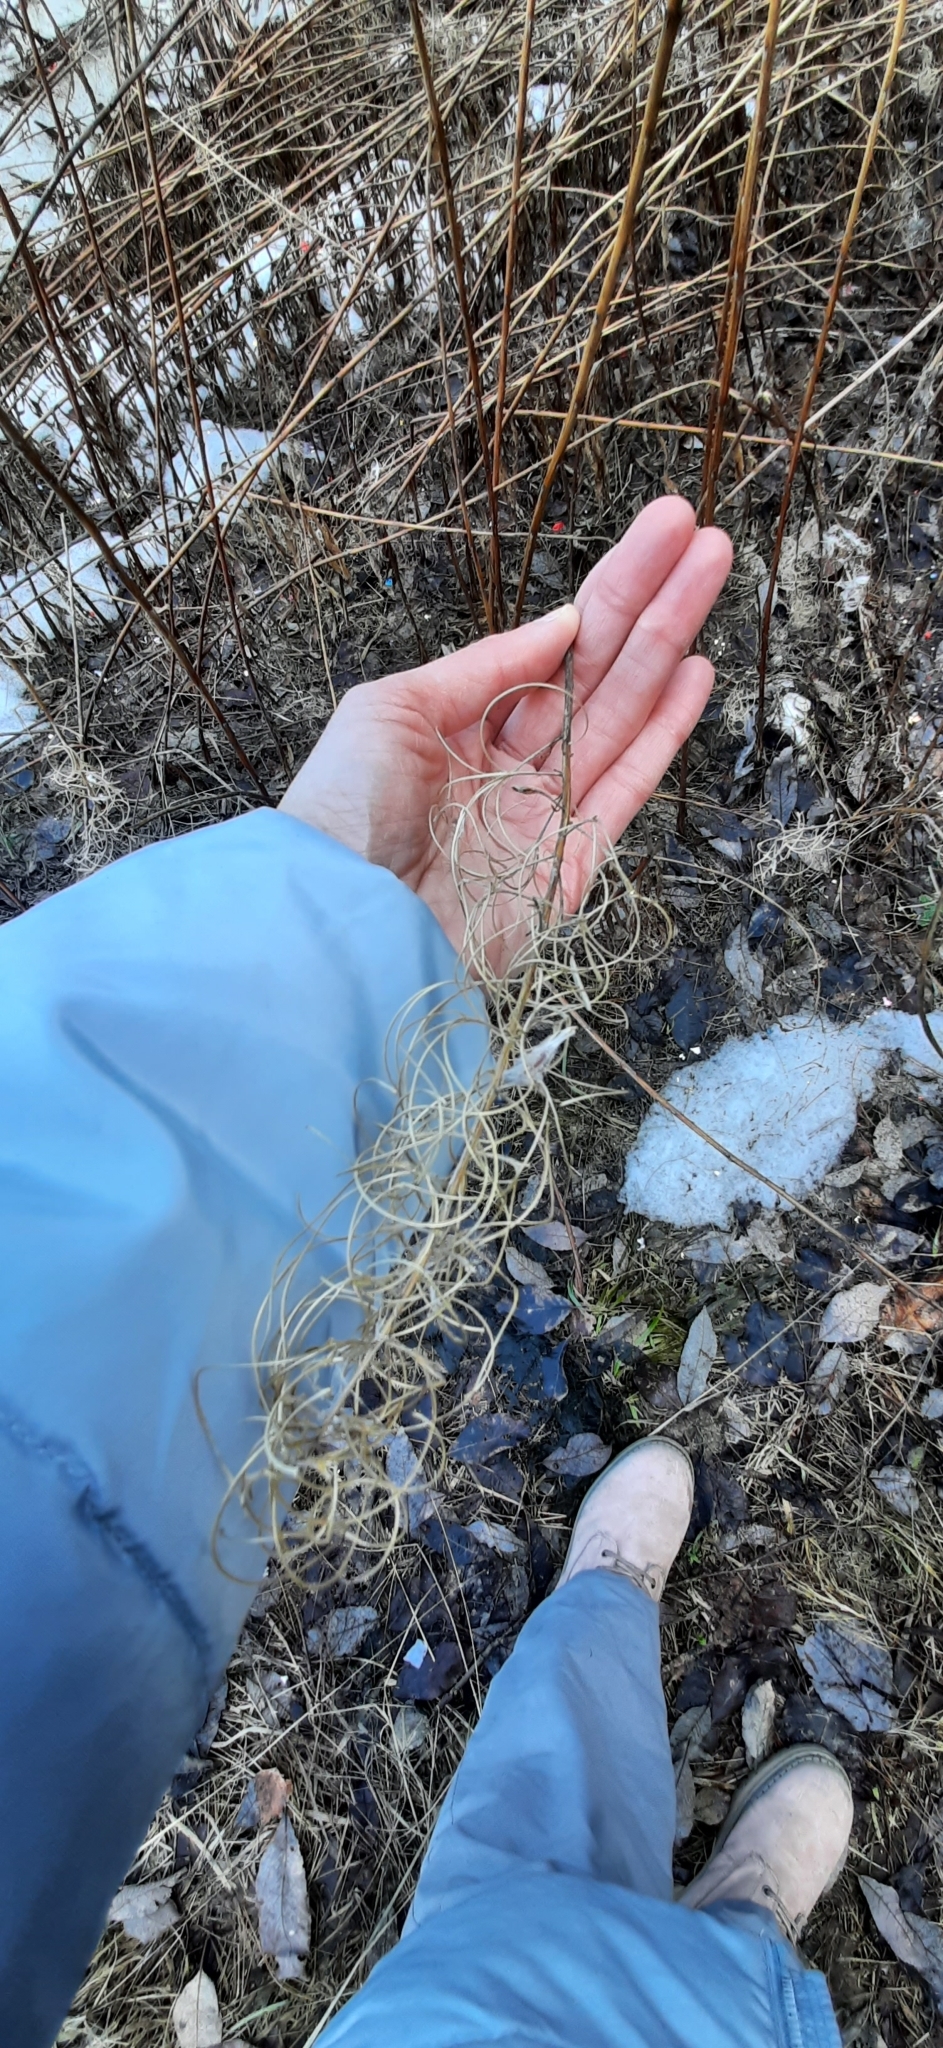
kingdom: Plantae
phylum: Tracheophyta
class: Magnoliopsida
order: Myrtales
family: Onagraceae
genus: Chamaenerion
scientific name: Chamaenerion angustifolium
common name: Fireweed
